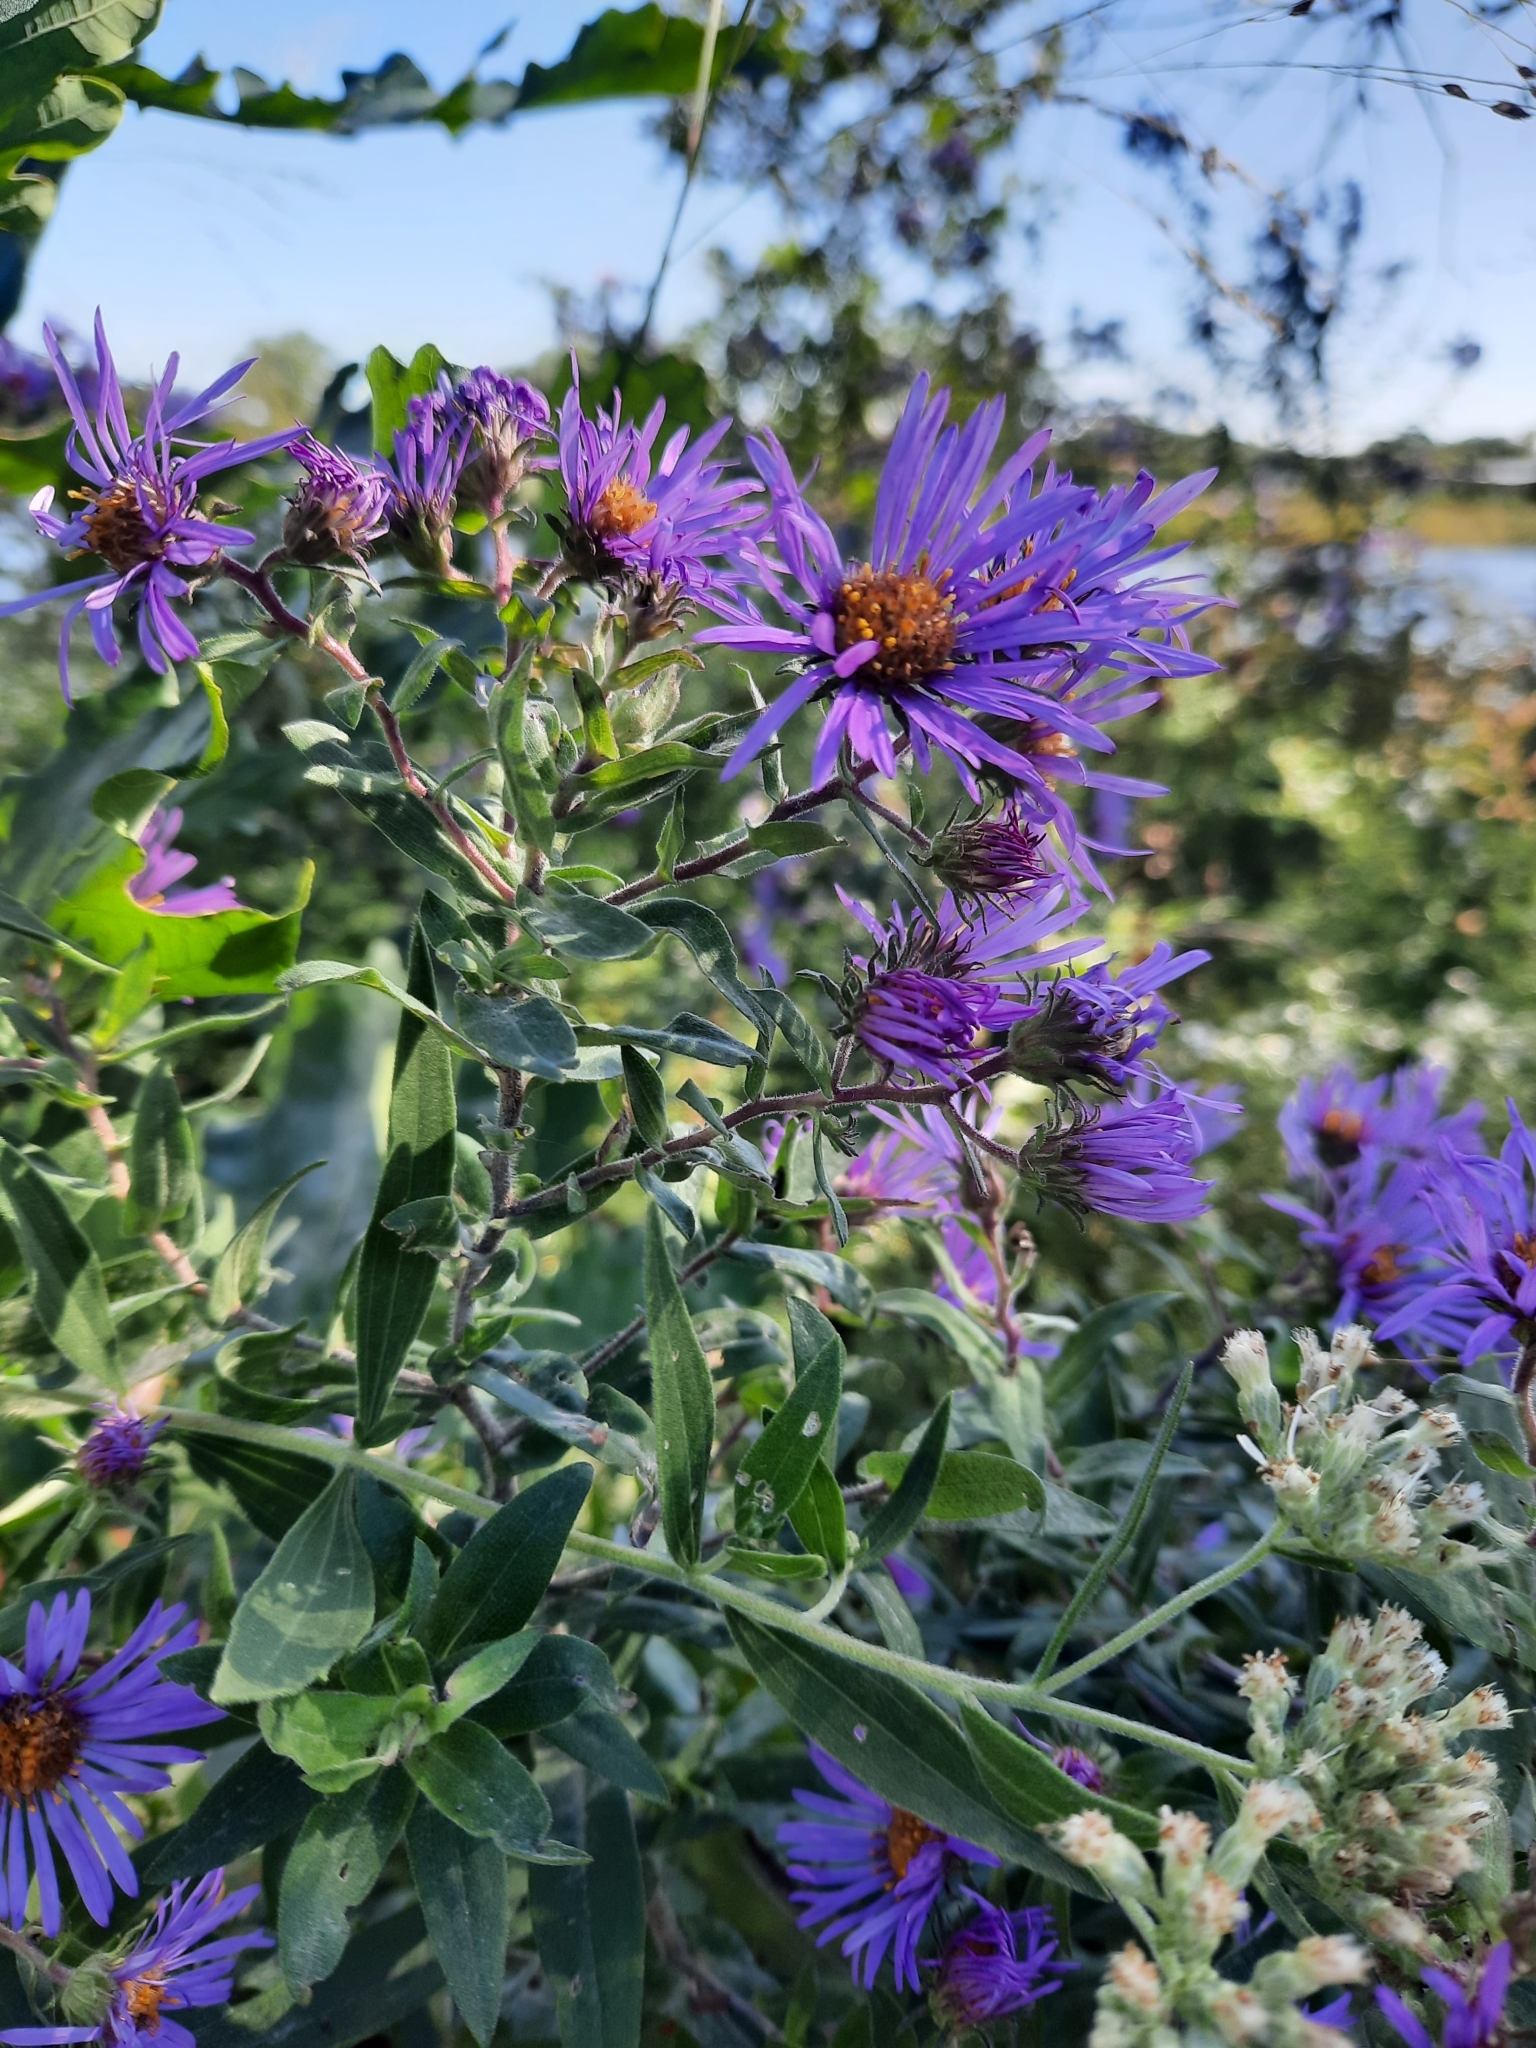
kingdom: Plantae
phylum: Tracheophyta
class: Magnoliopsida
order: Asterales
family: Asteraceae
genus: Symphyotrichum
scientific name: Symphyotrichum novae-angliae
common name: Michaelmas daisy
